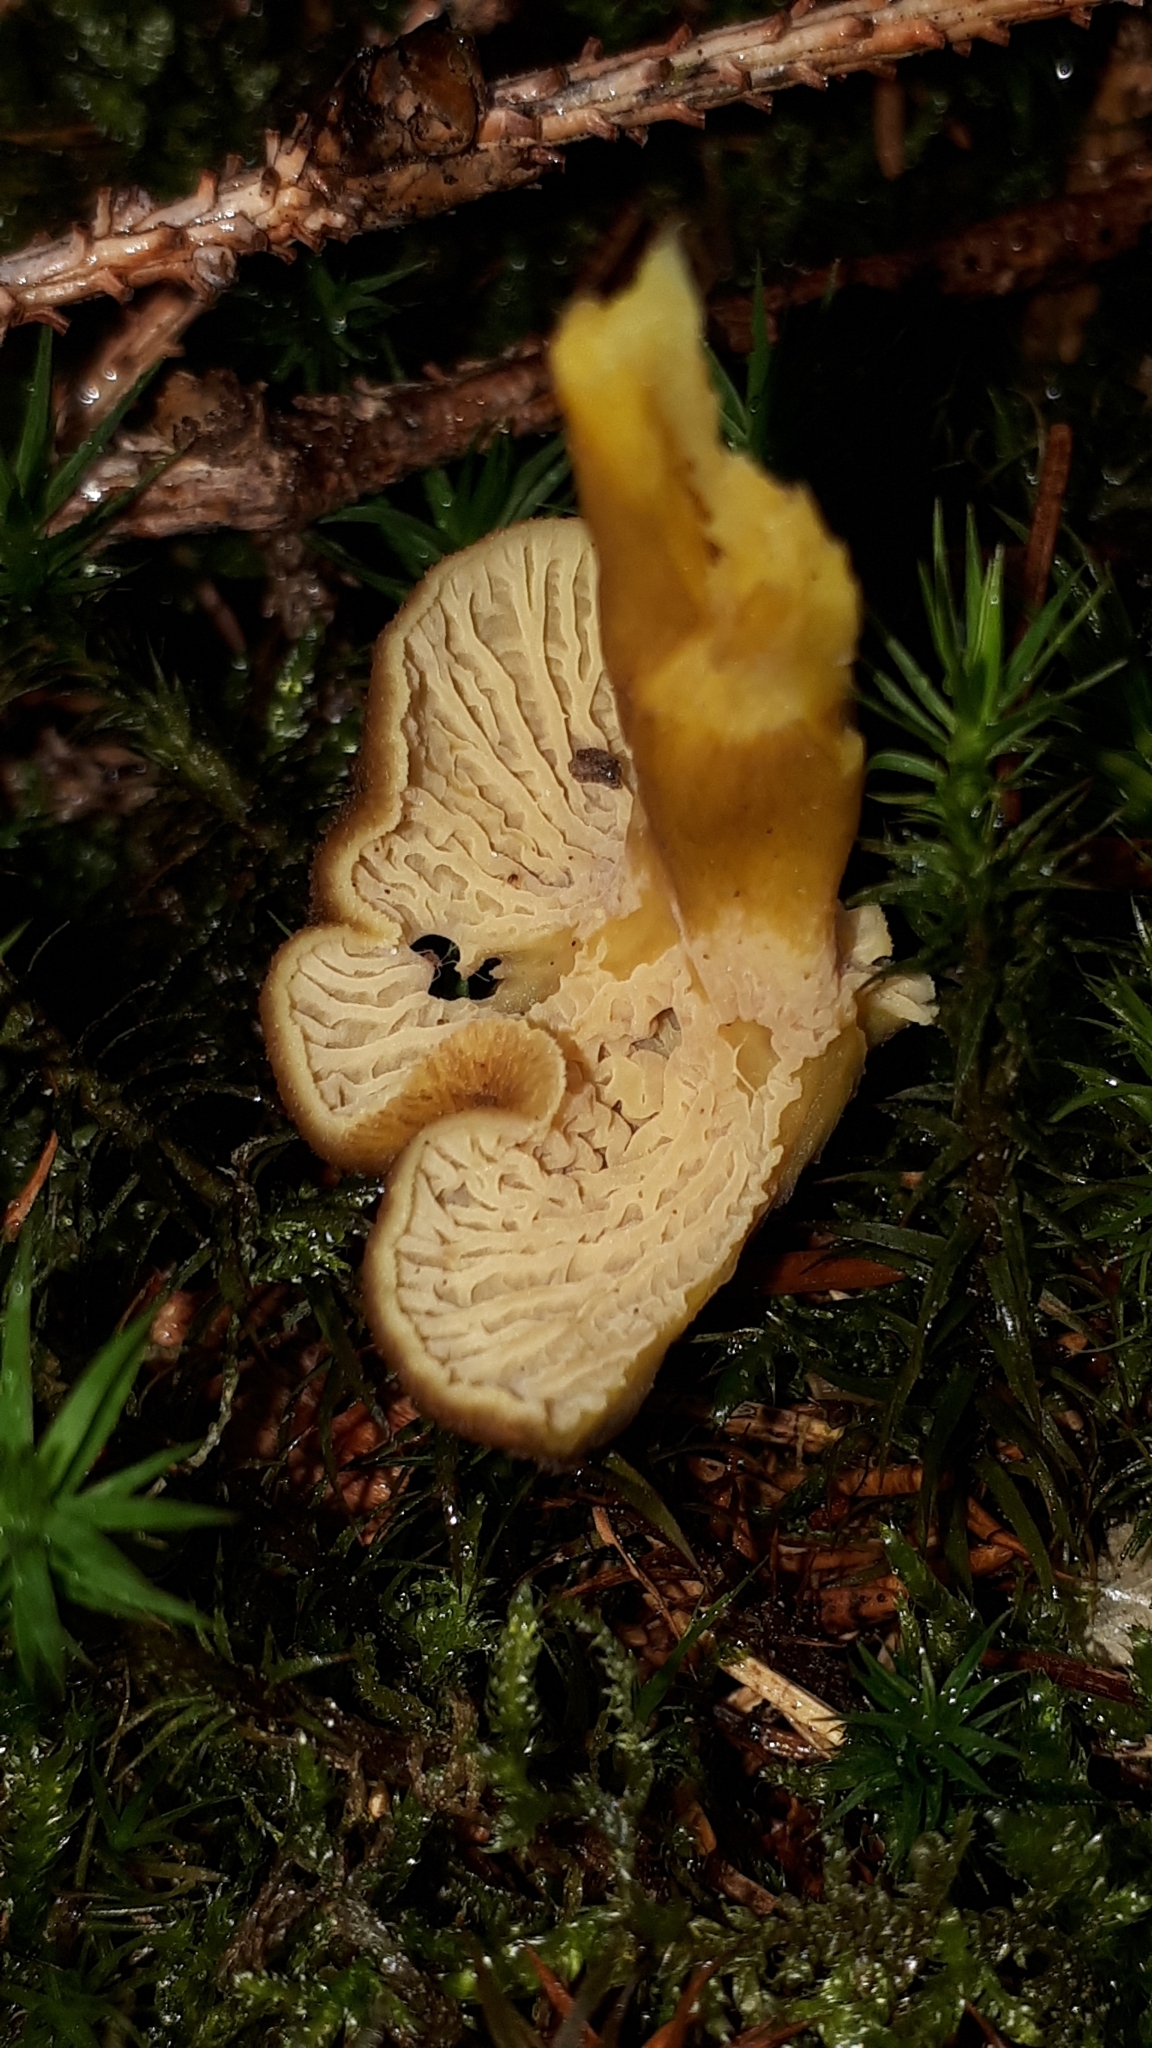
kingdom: Fungi
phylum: Basidiomycota
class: Agaricomycetes
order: Cantharellales
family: Hydnaceae
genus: Craterellus
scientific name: Craterellus tubaeformis
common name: Yellowfoot
